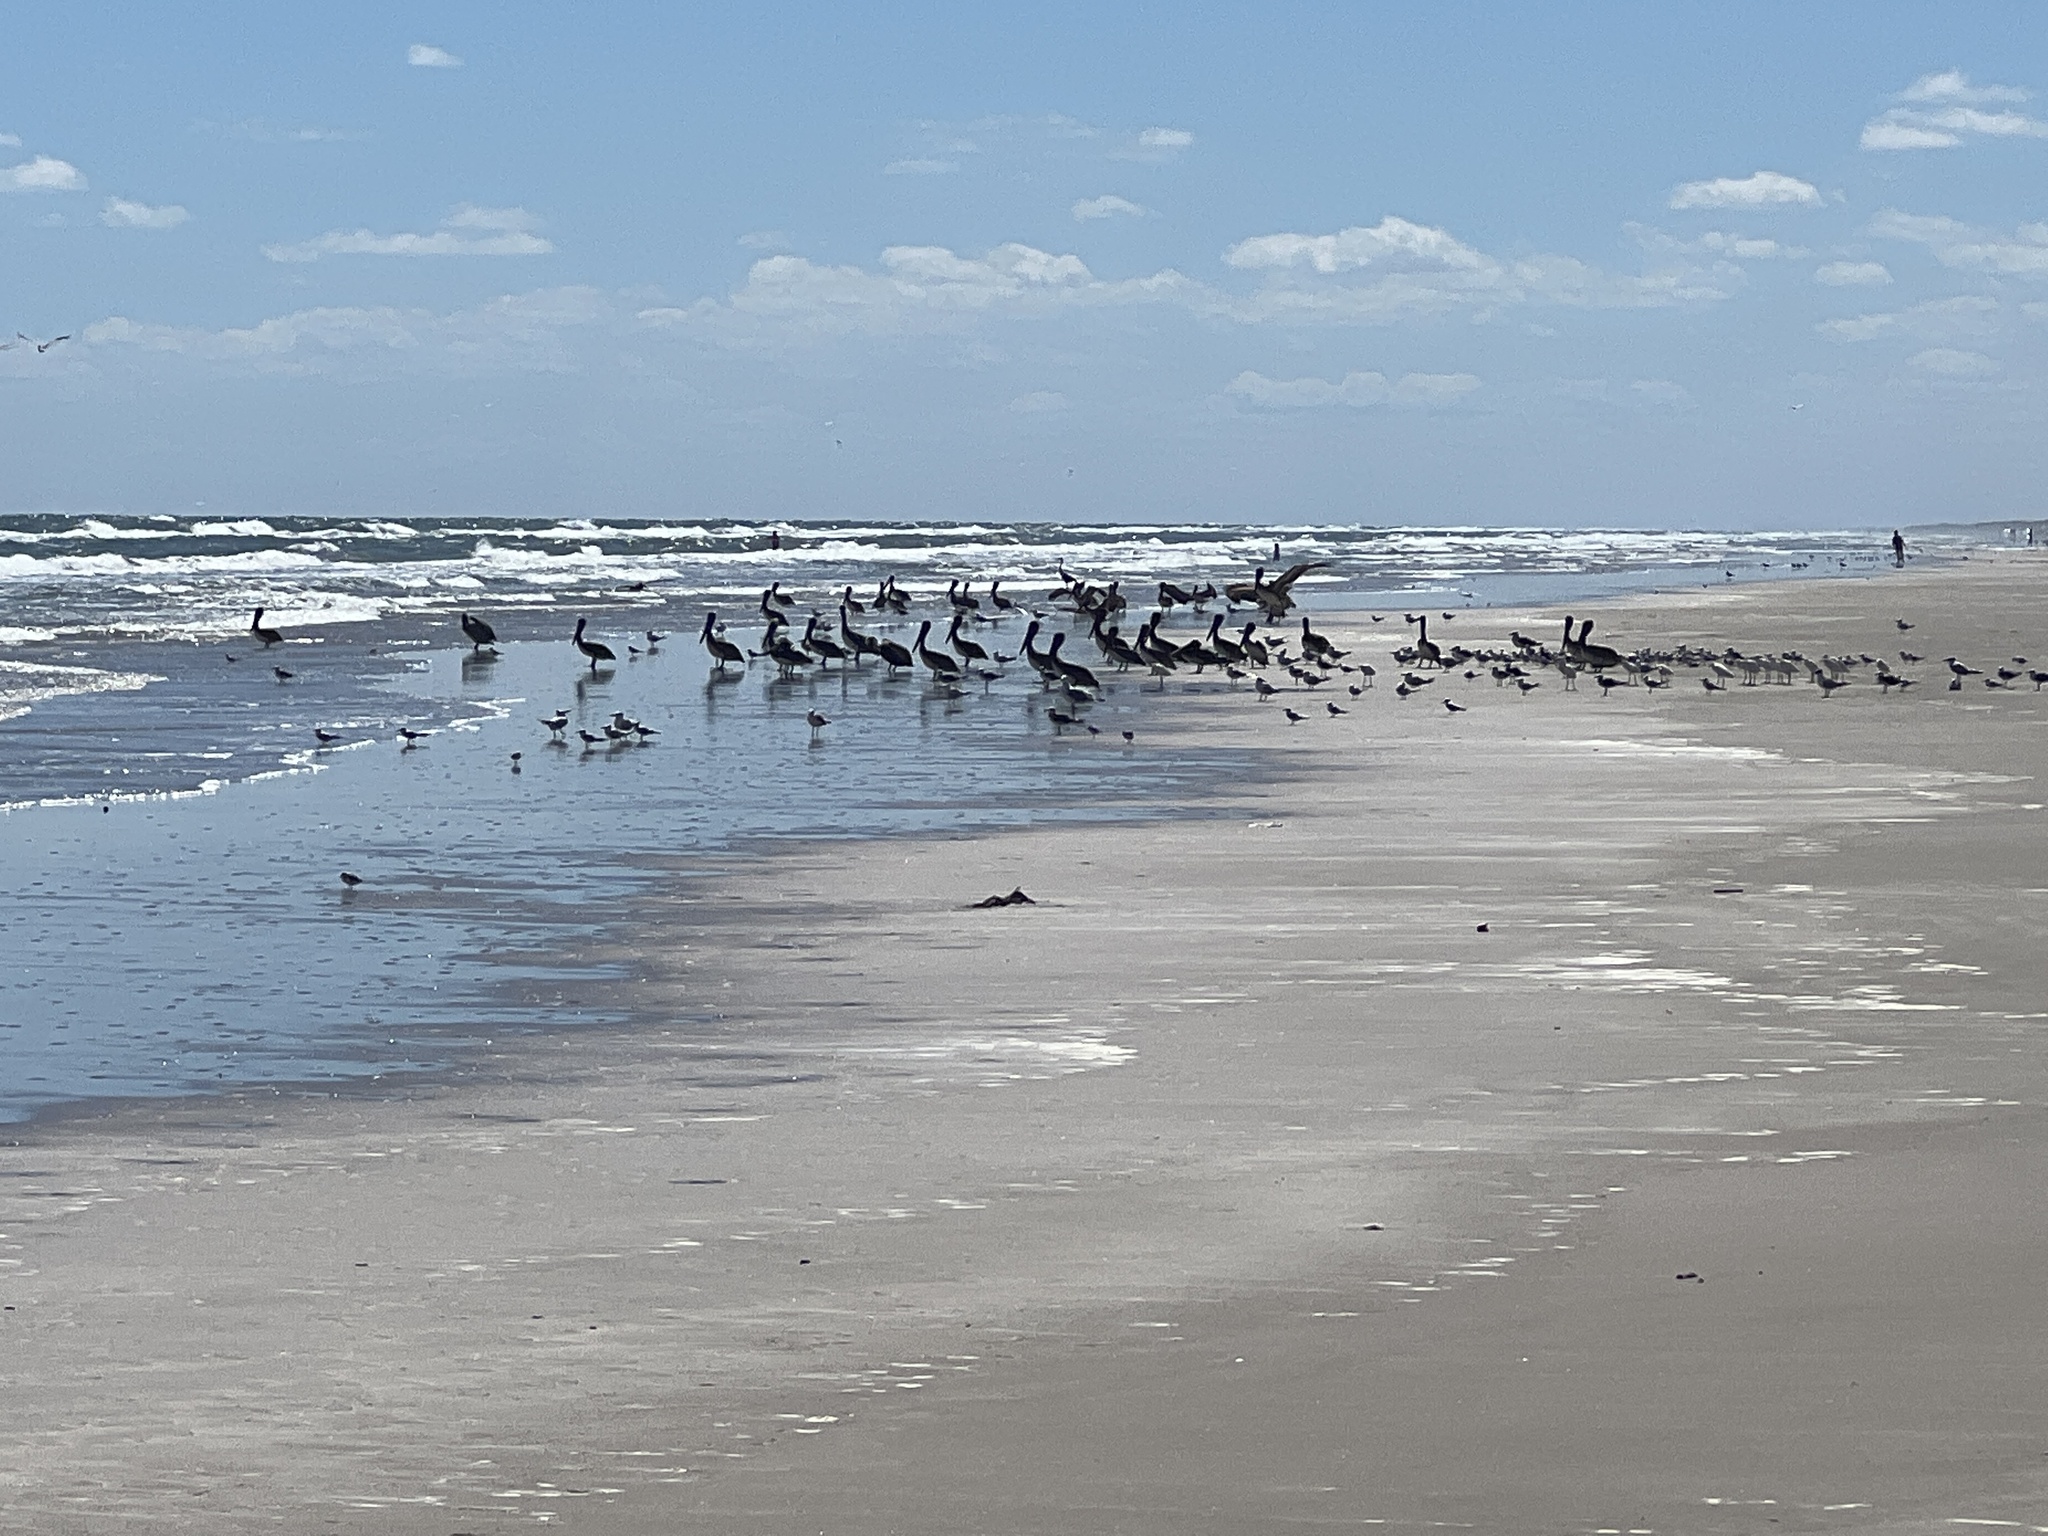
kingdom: Animalia
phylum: Chordata
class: Aves
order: Pelecaniformes
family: Pelecanidae
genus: Pelecanus
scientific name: Pelecanus occidentalis
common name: Brown pelican
